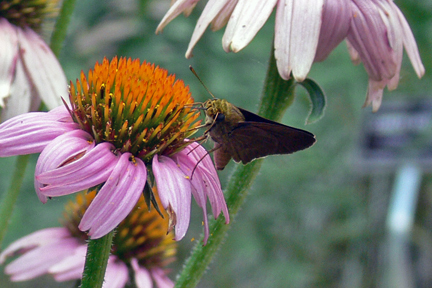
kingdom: Animalia
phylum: Arthropoda
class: Insecta
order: Lepidoptera
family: Hesperiidae
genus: Euphyes
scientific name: Euphyes vestris
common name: Dun skipper
